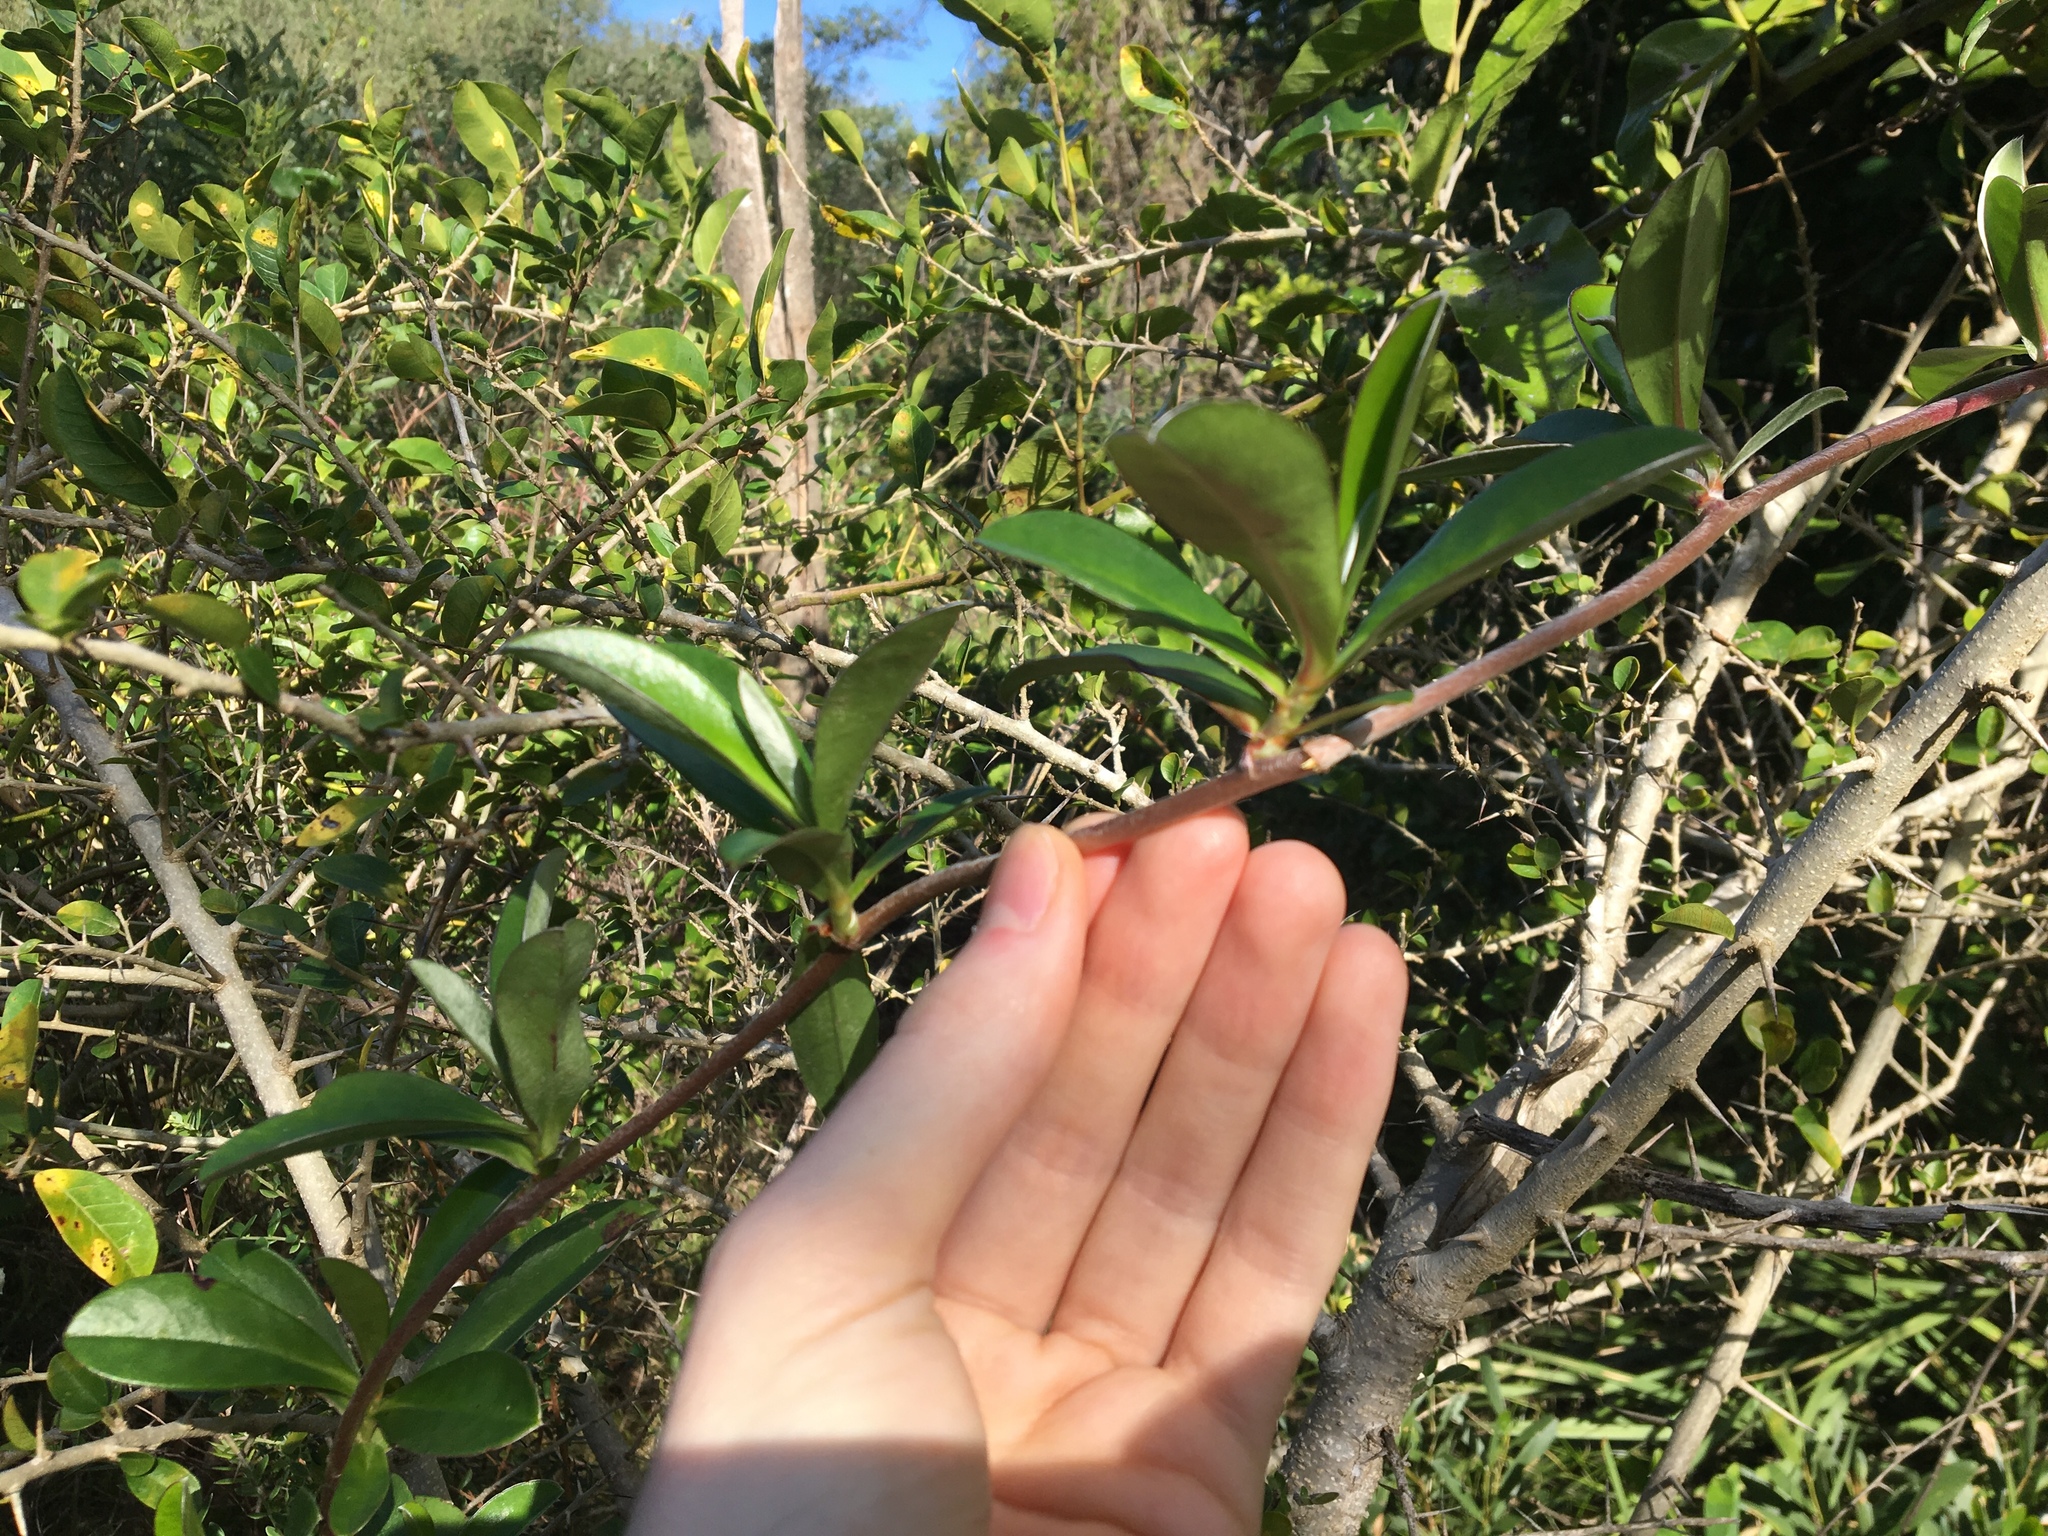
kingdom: Plantae
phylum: Tracheophyta
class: Magnoliopsida
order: Dilleniales
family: Dilleniaceae
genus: Hibbertia
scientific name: Hibbertia scandens
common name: Climbing guinea-flower
